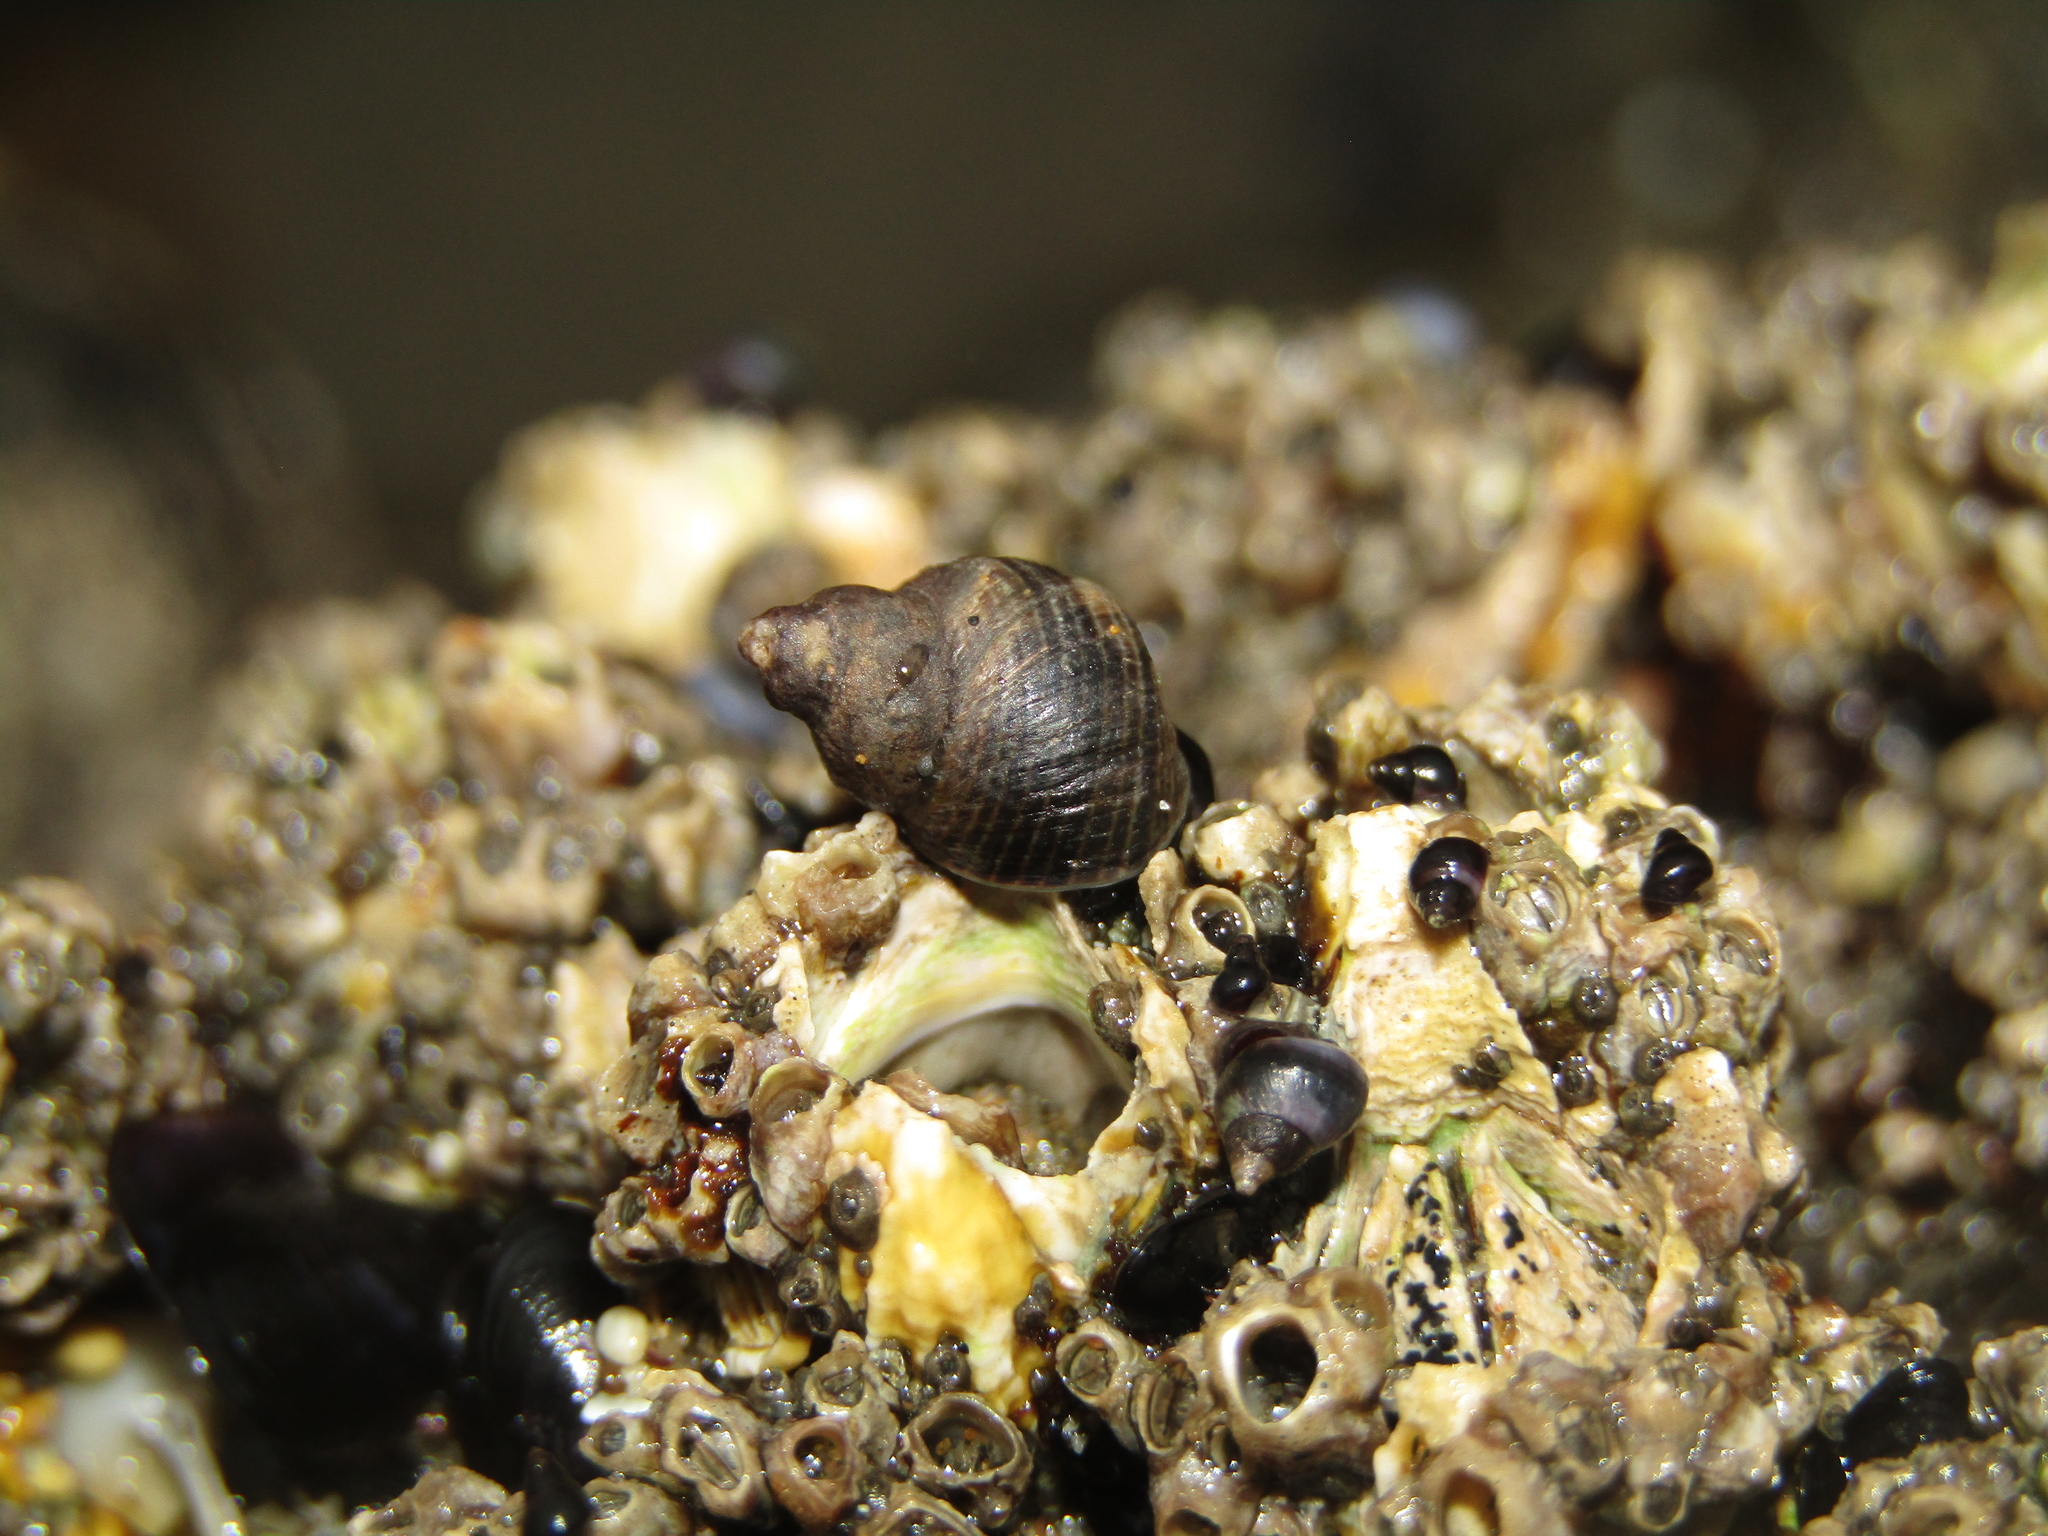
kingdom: Animalia
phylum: Mollusca
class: Gastropoda
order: Littorinimorpha
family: Littorinidae
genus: Austrolittorina
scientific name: Austrolittorina cincta
